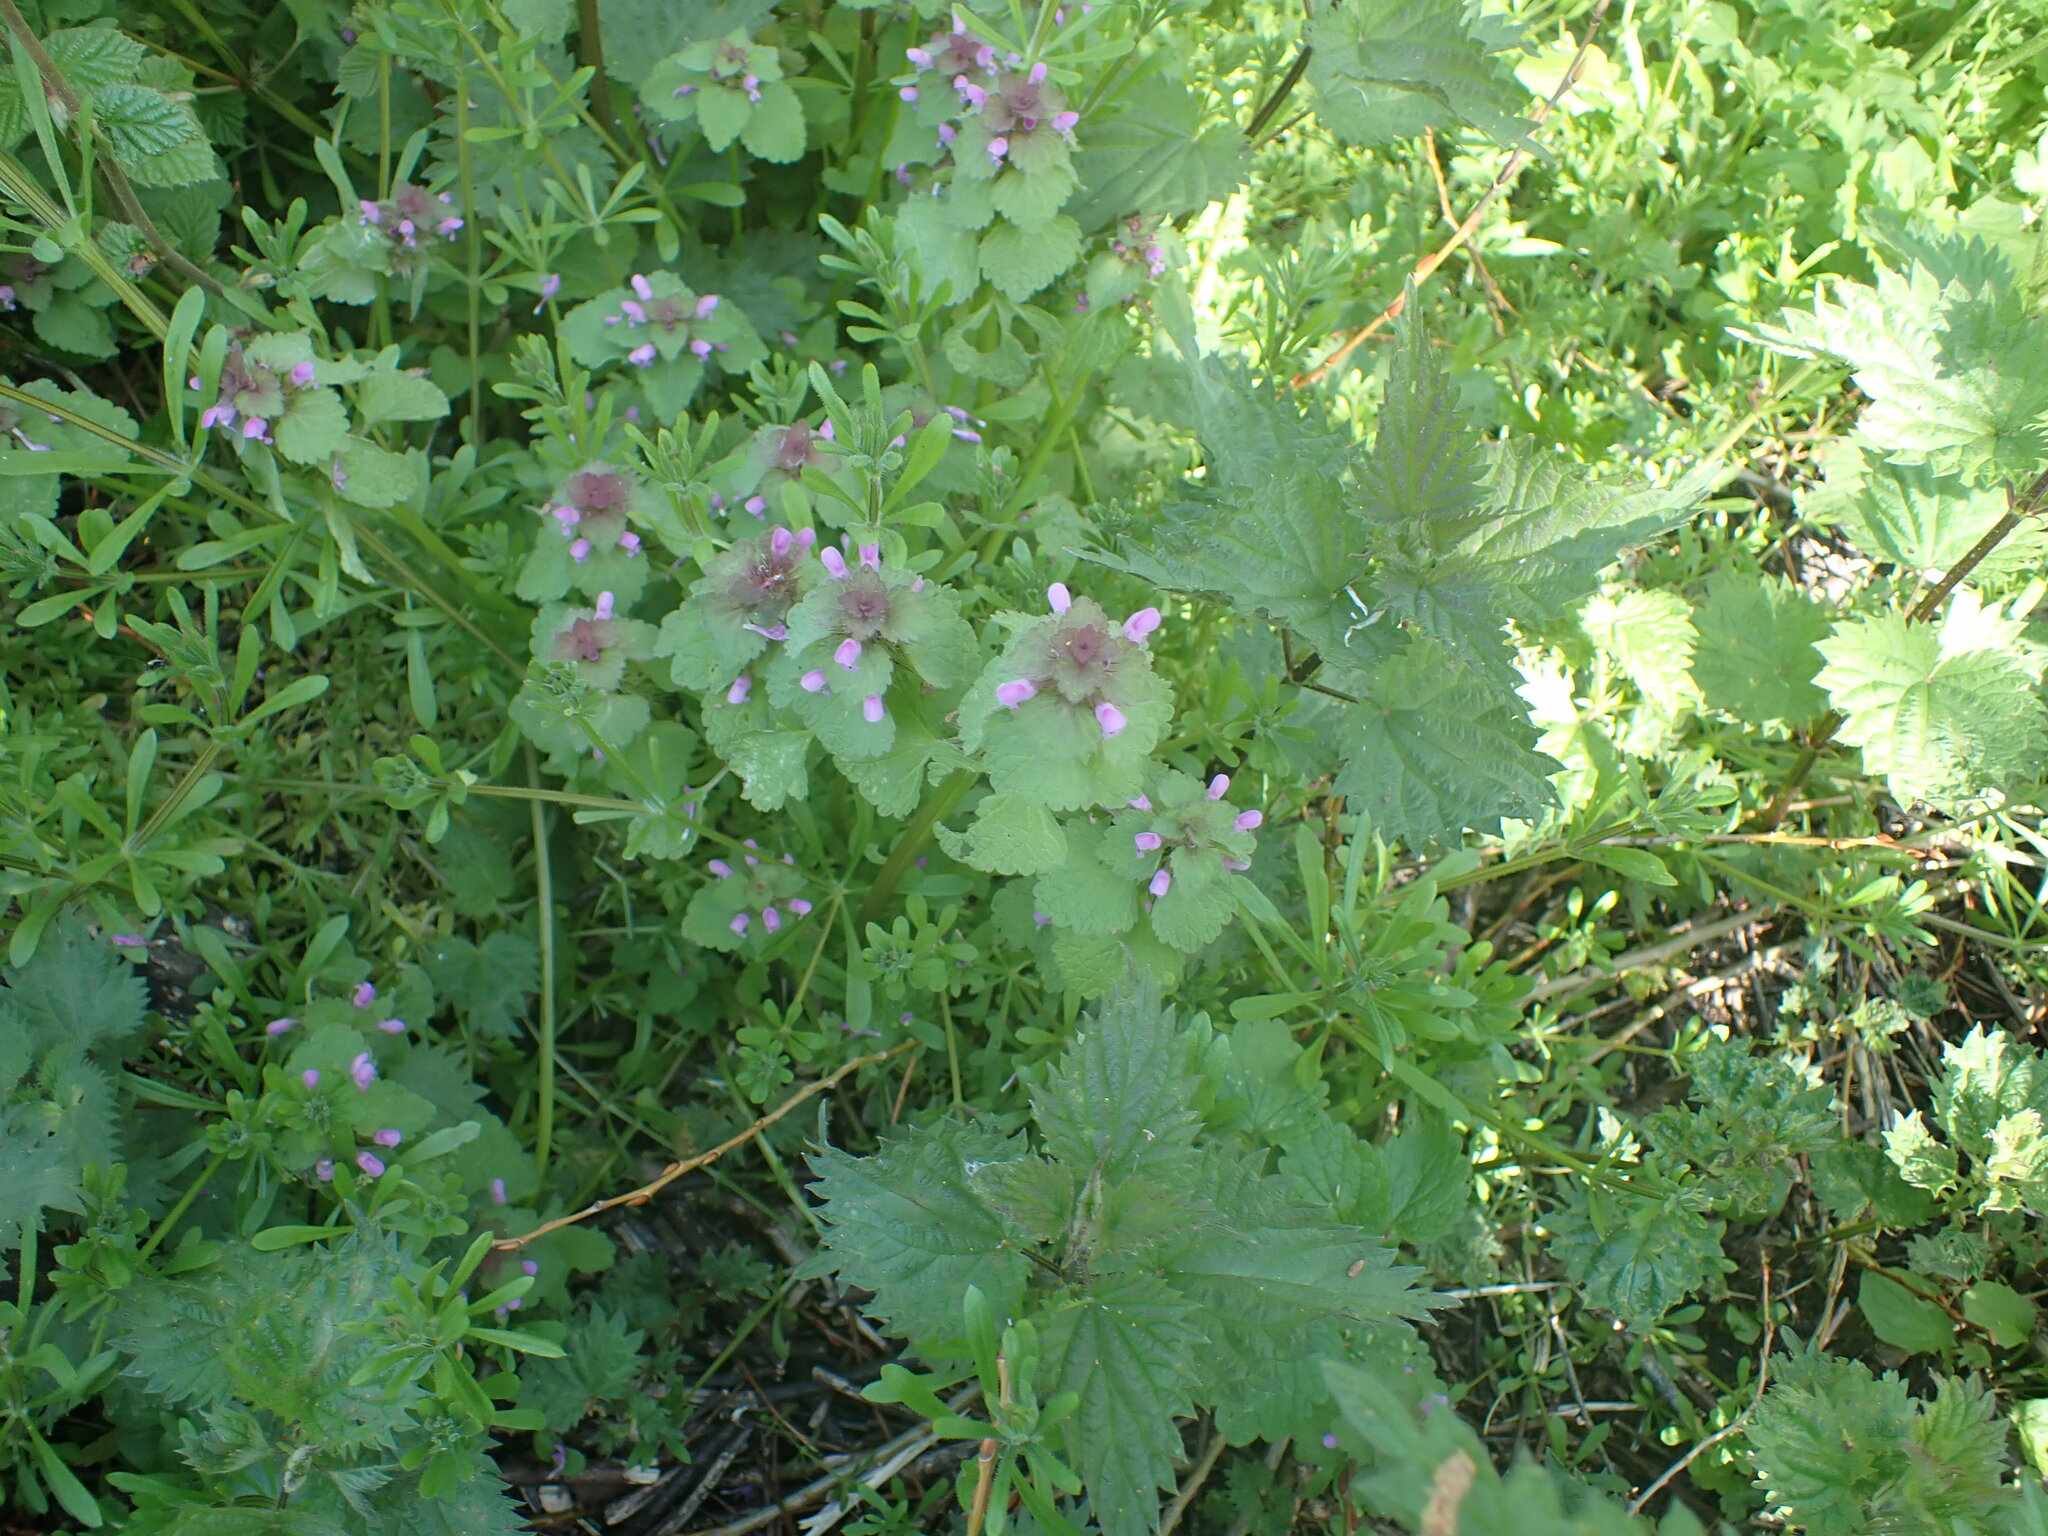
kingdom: Plantae
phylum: Tracheophyta
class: Magnoliopsida
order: Lamiales
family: Lamiaceae
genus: Lamium
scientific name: Lamium purpureum
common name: Red dead-nettle
